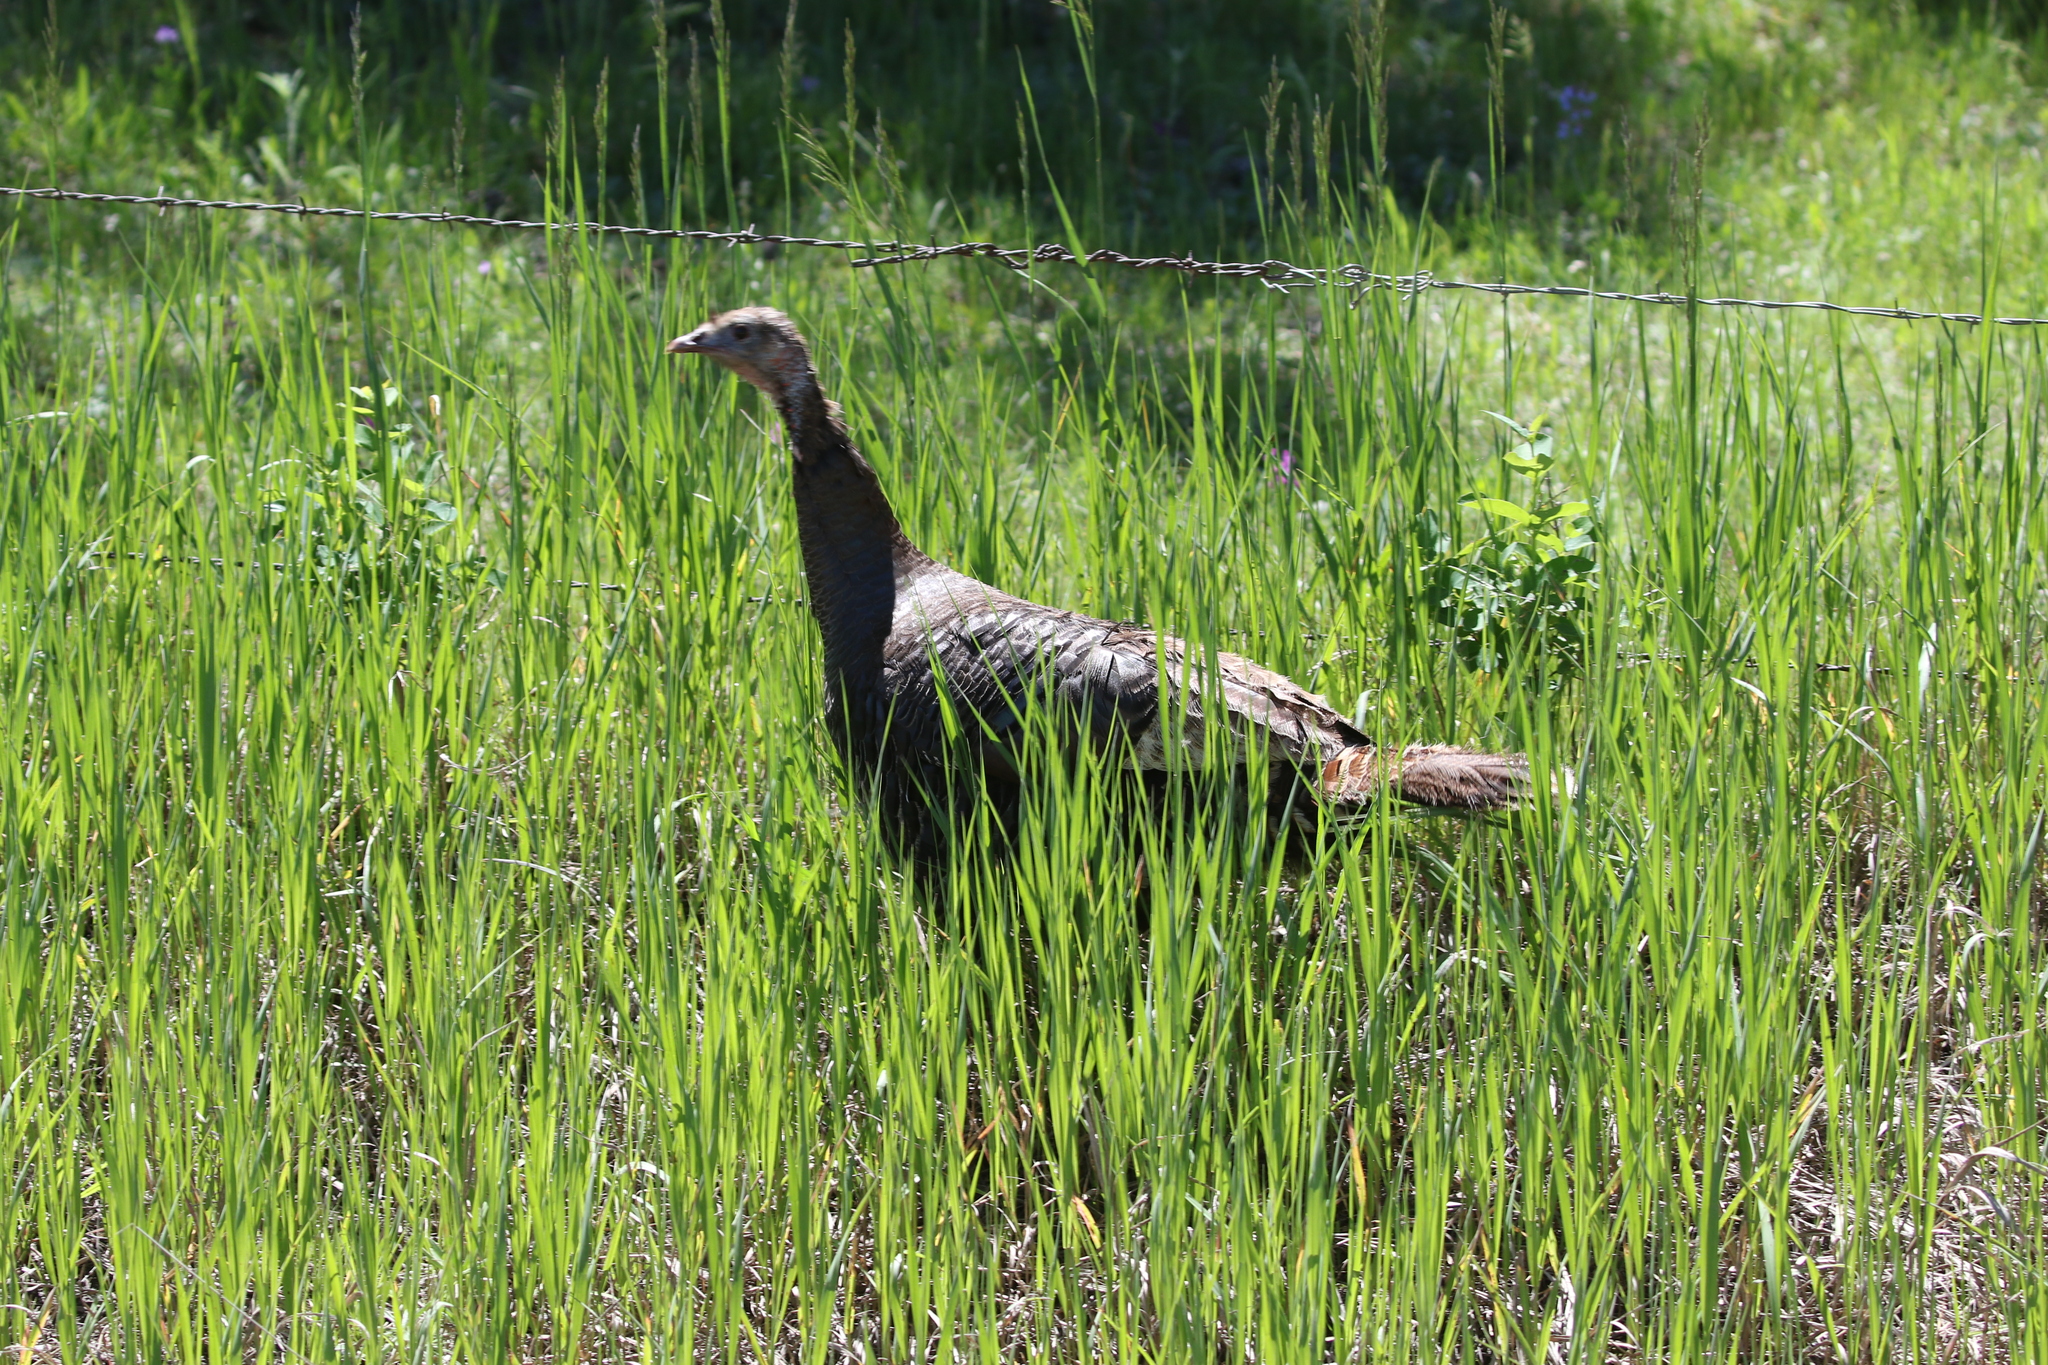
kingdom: Animalia
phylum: Chordata
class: Aves
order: Galliformes
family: Phasianidae
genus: Meleagris
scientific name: Meleagris gallopavo
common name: Wild turkey
